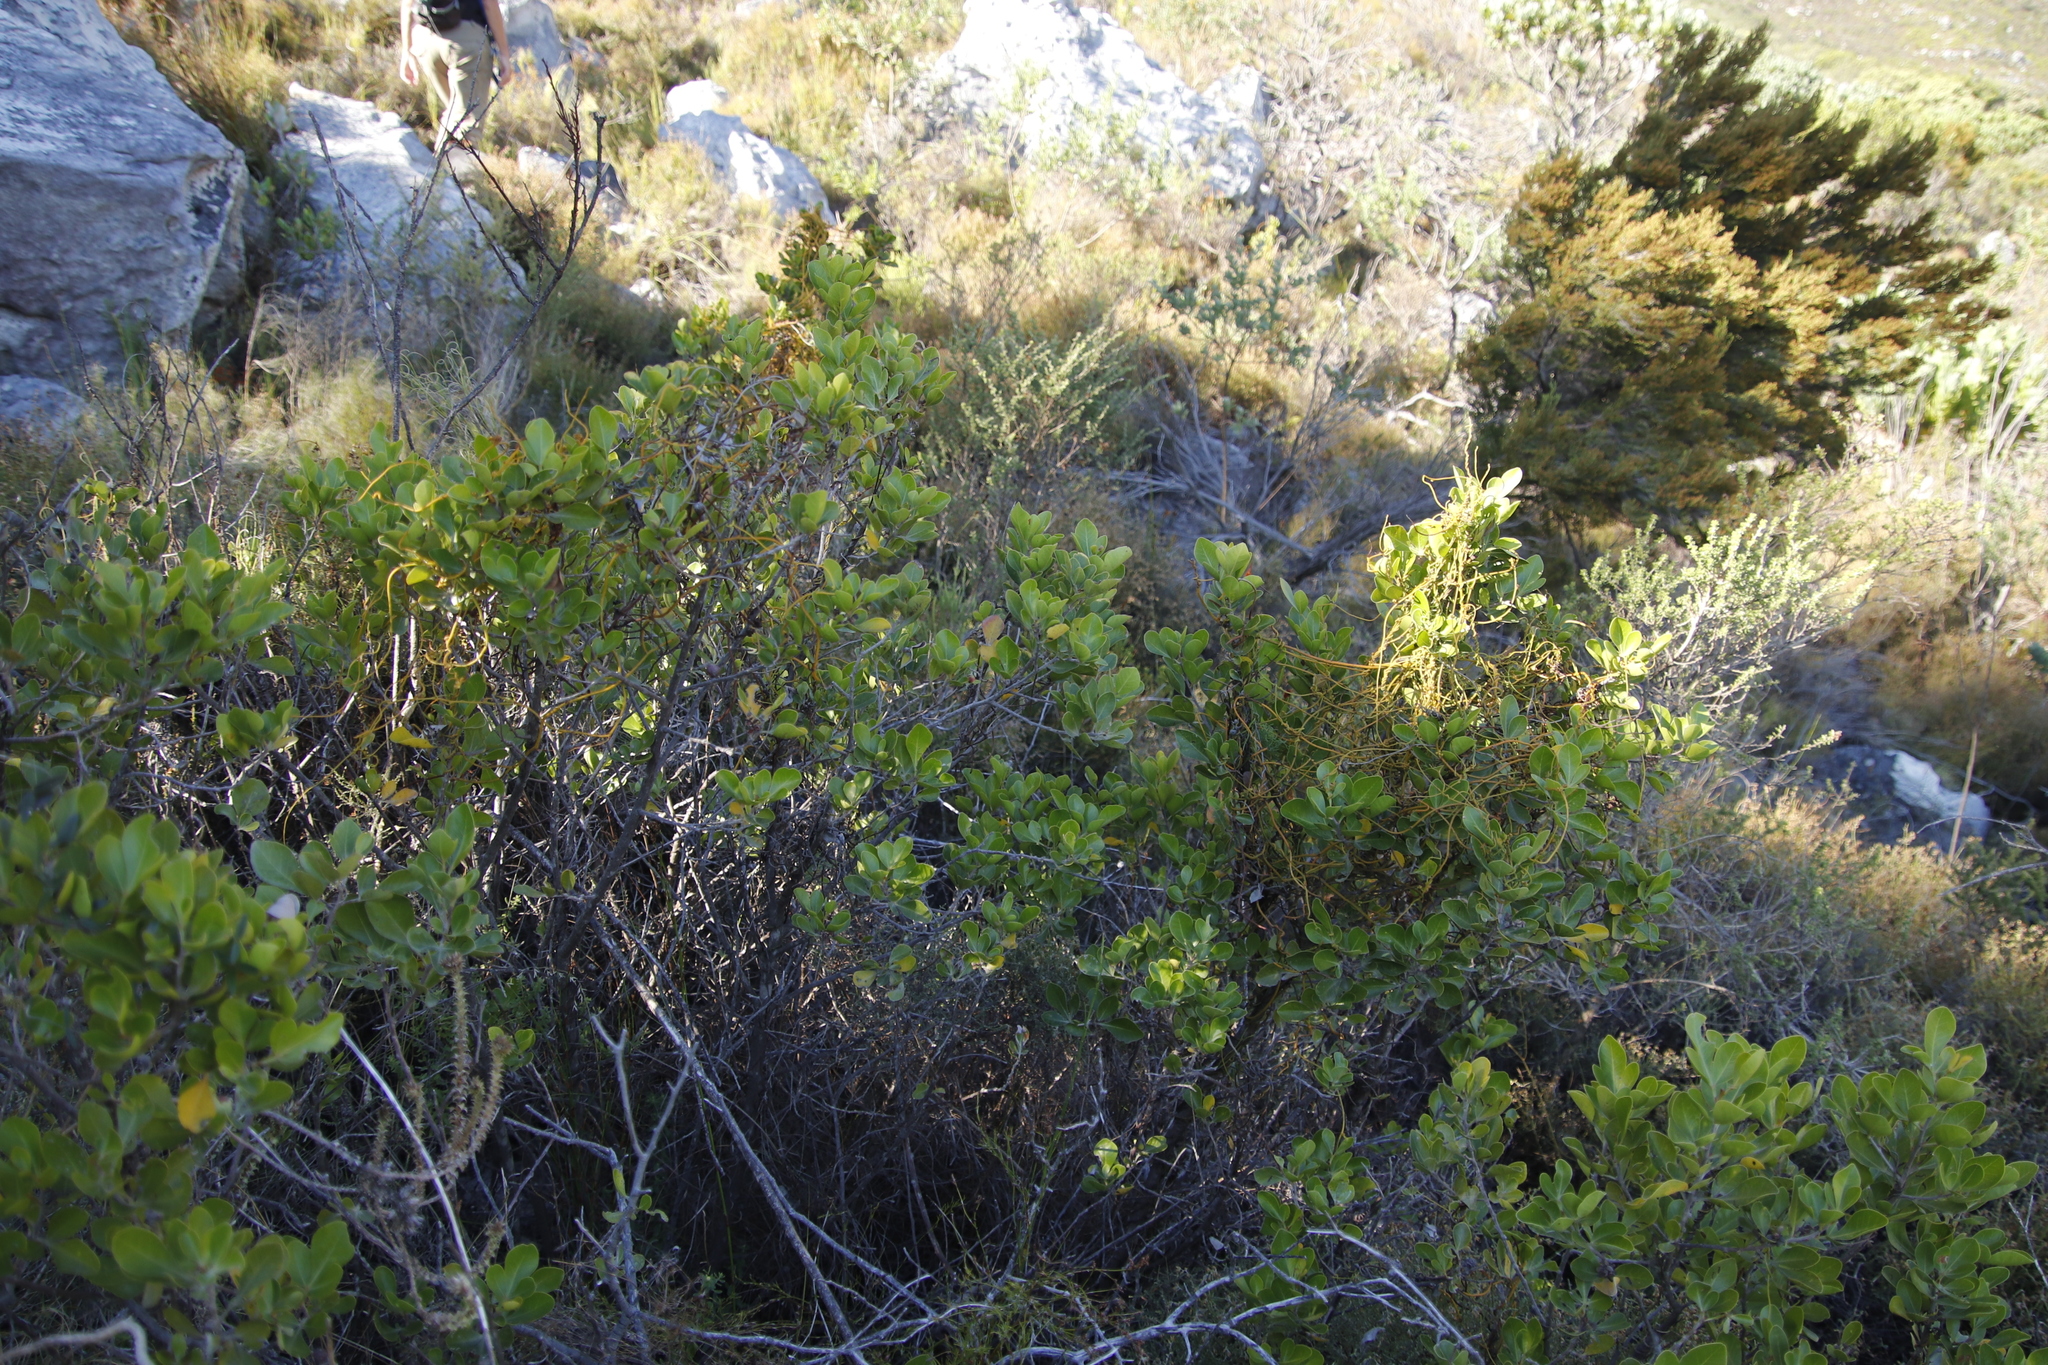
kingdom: Plantae
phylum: Tracheophyta
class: Magnoliopsida
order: Sapindales
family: Anacardiaceae
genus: Searsia
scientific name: Searsia lucida
